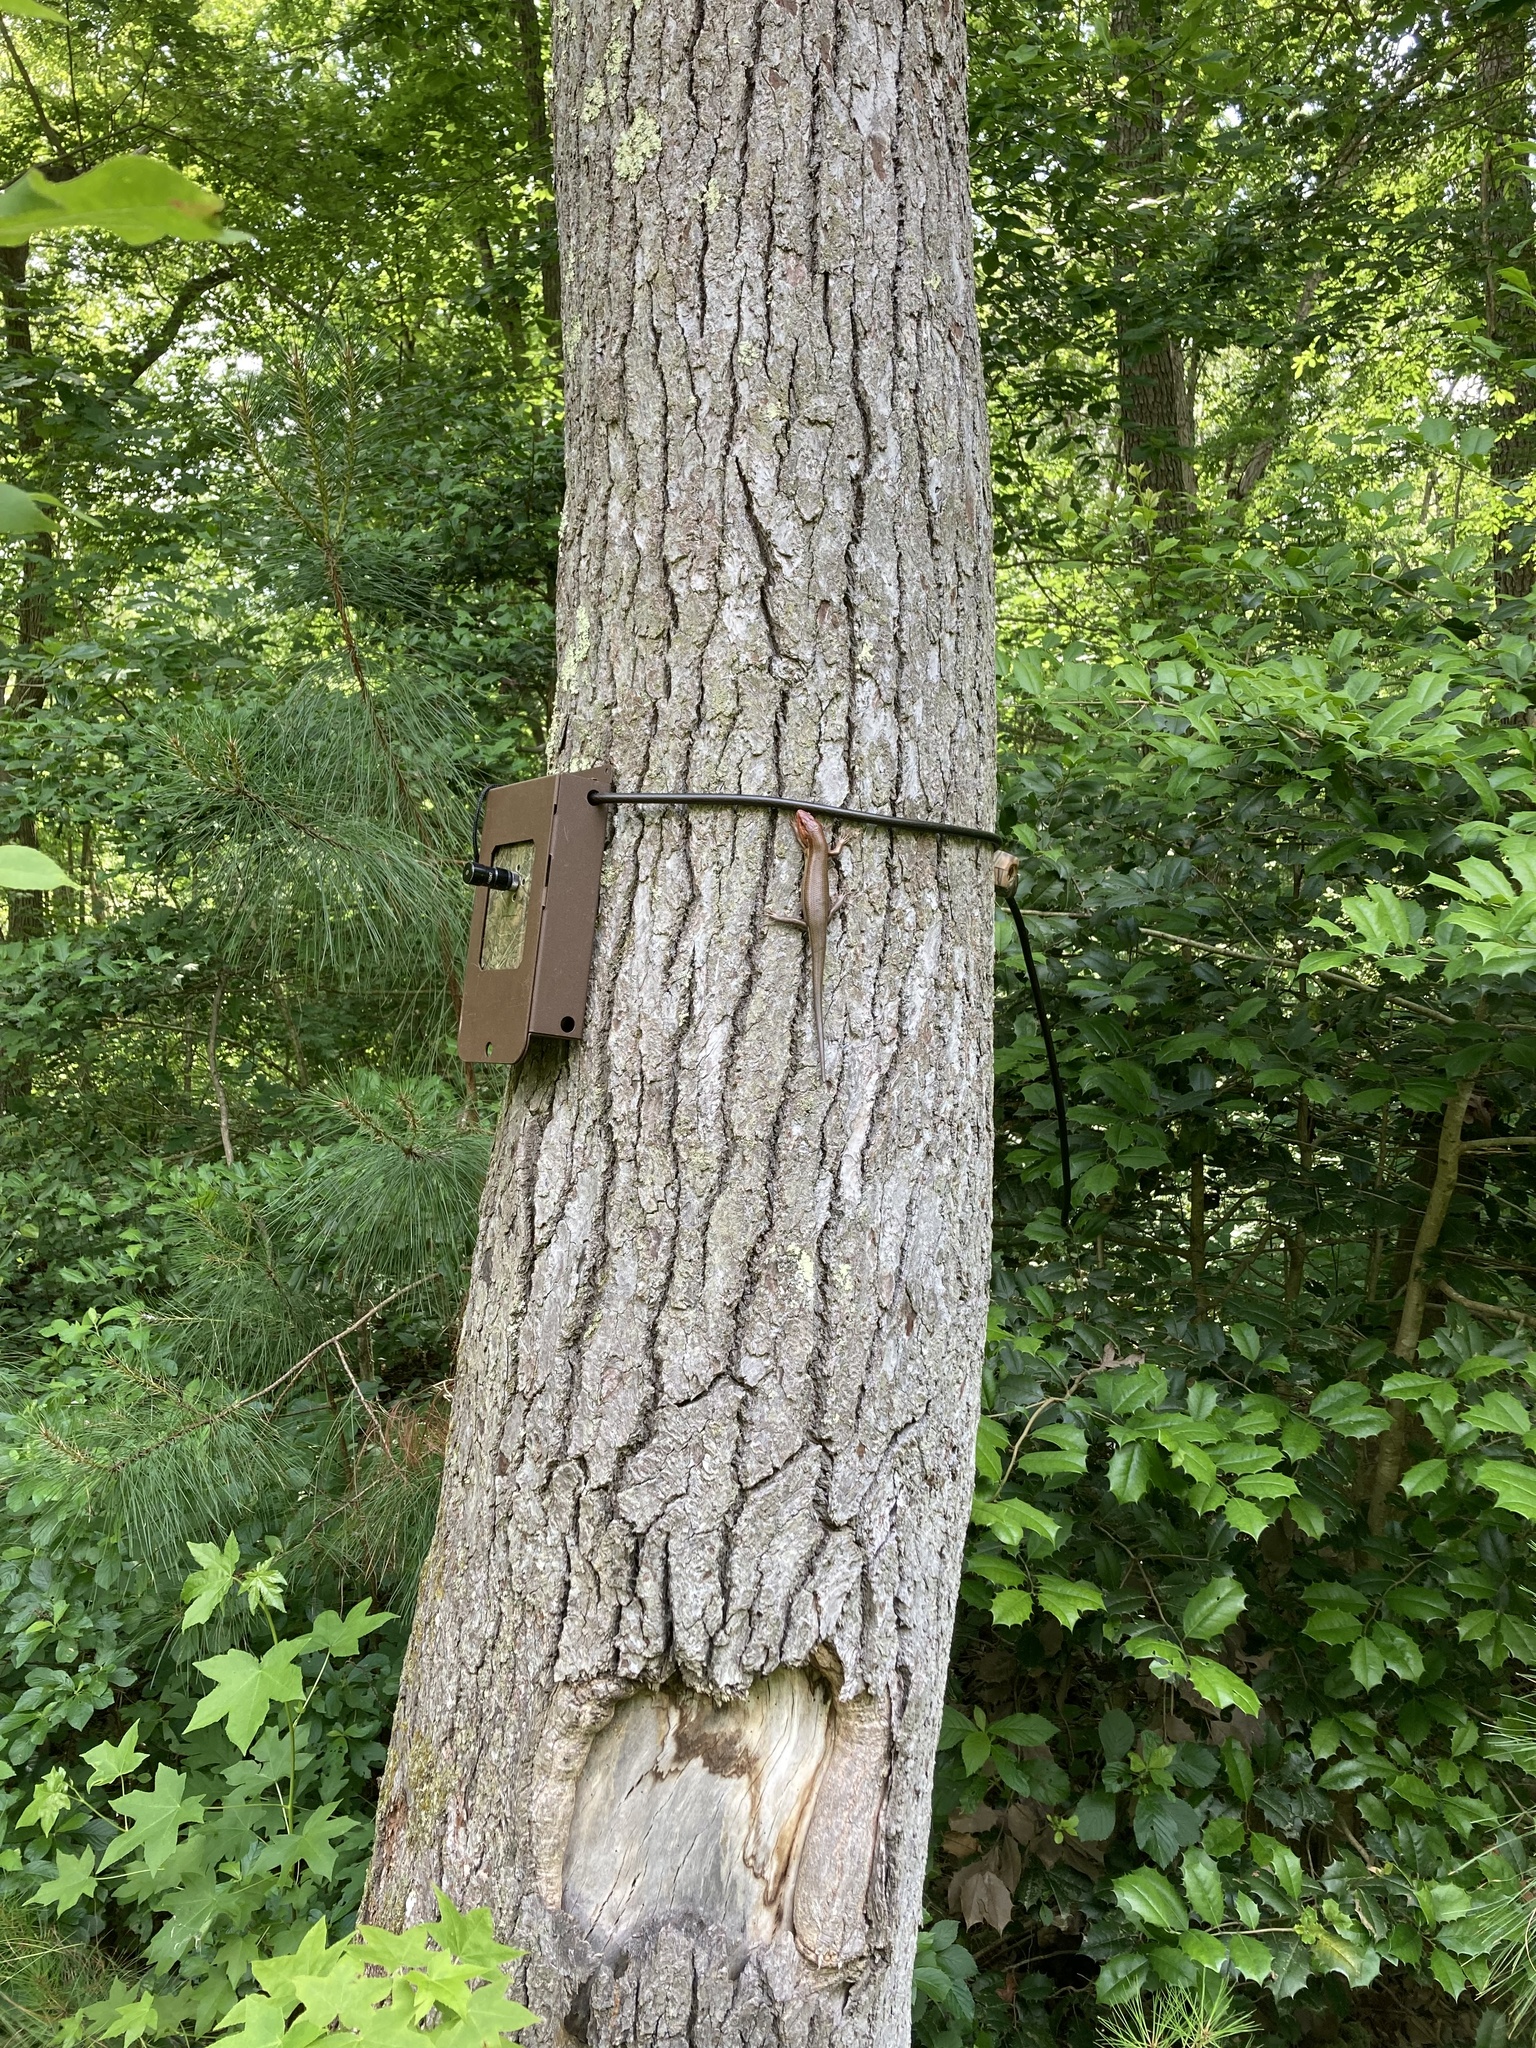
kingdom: Animalia
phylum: Chordata
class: Squamata
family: Scincidae
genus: Plestiodon
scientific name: Plestiodon laticeps
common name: Broadhead skink
